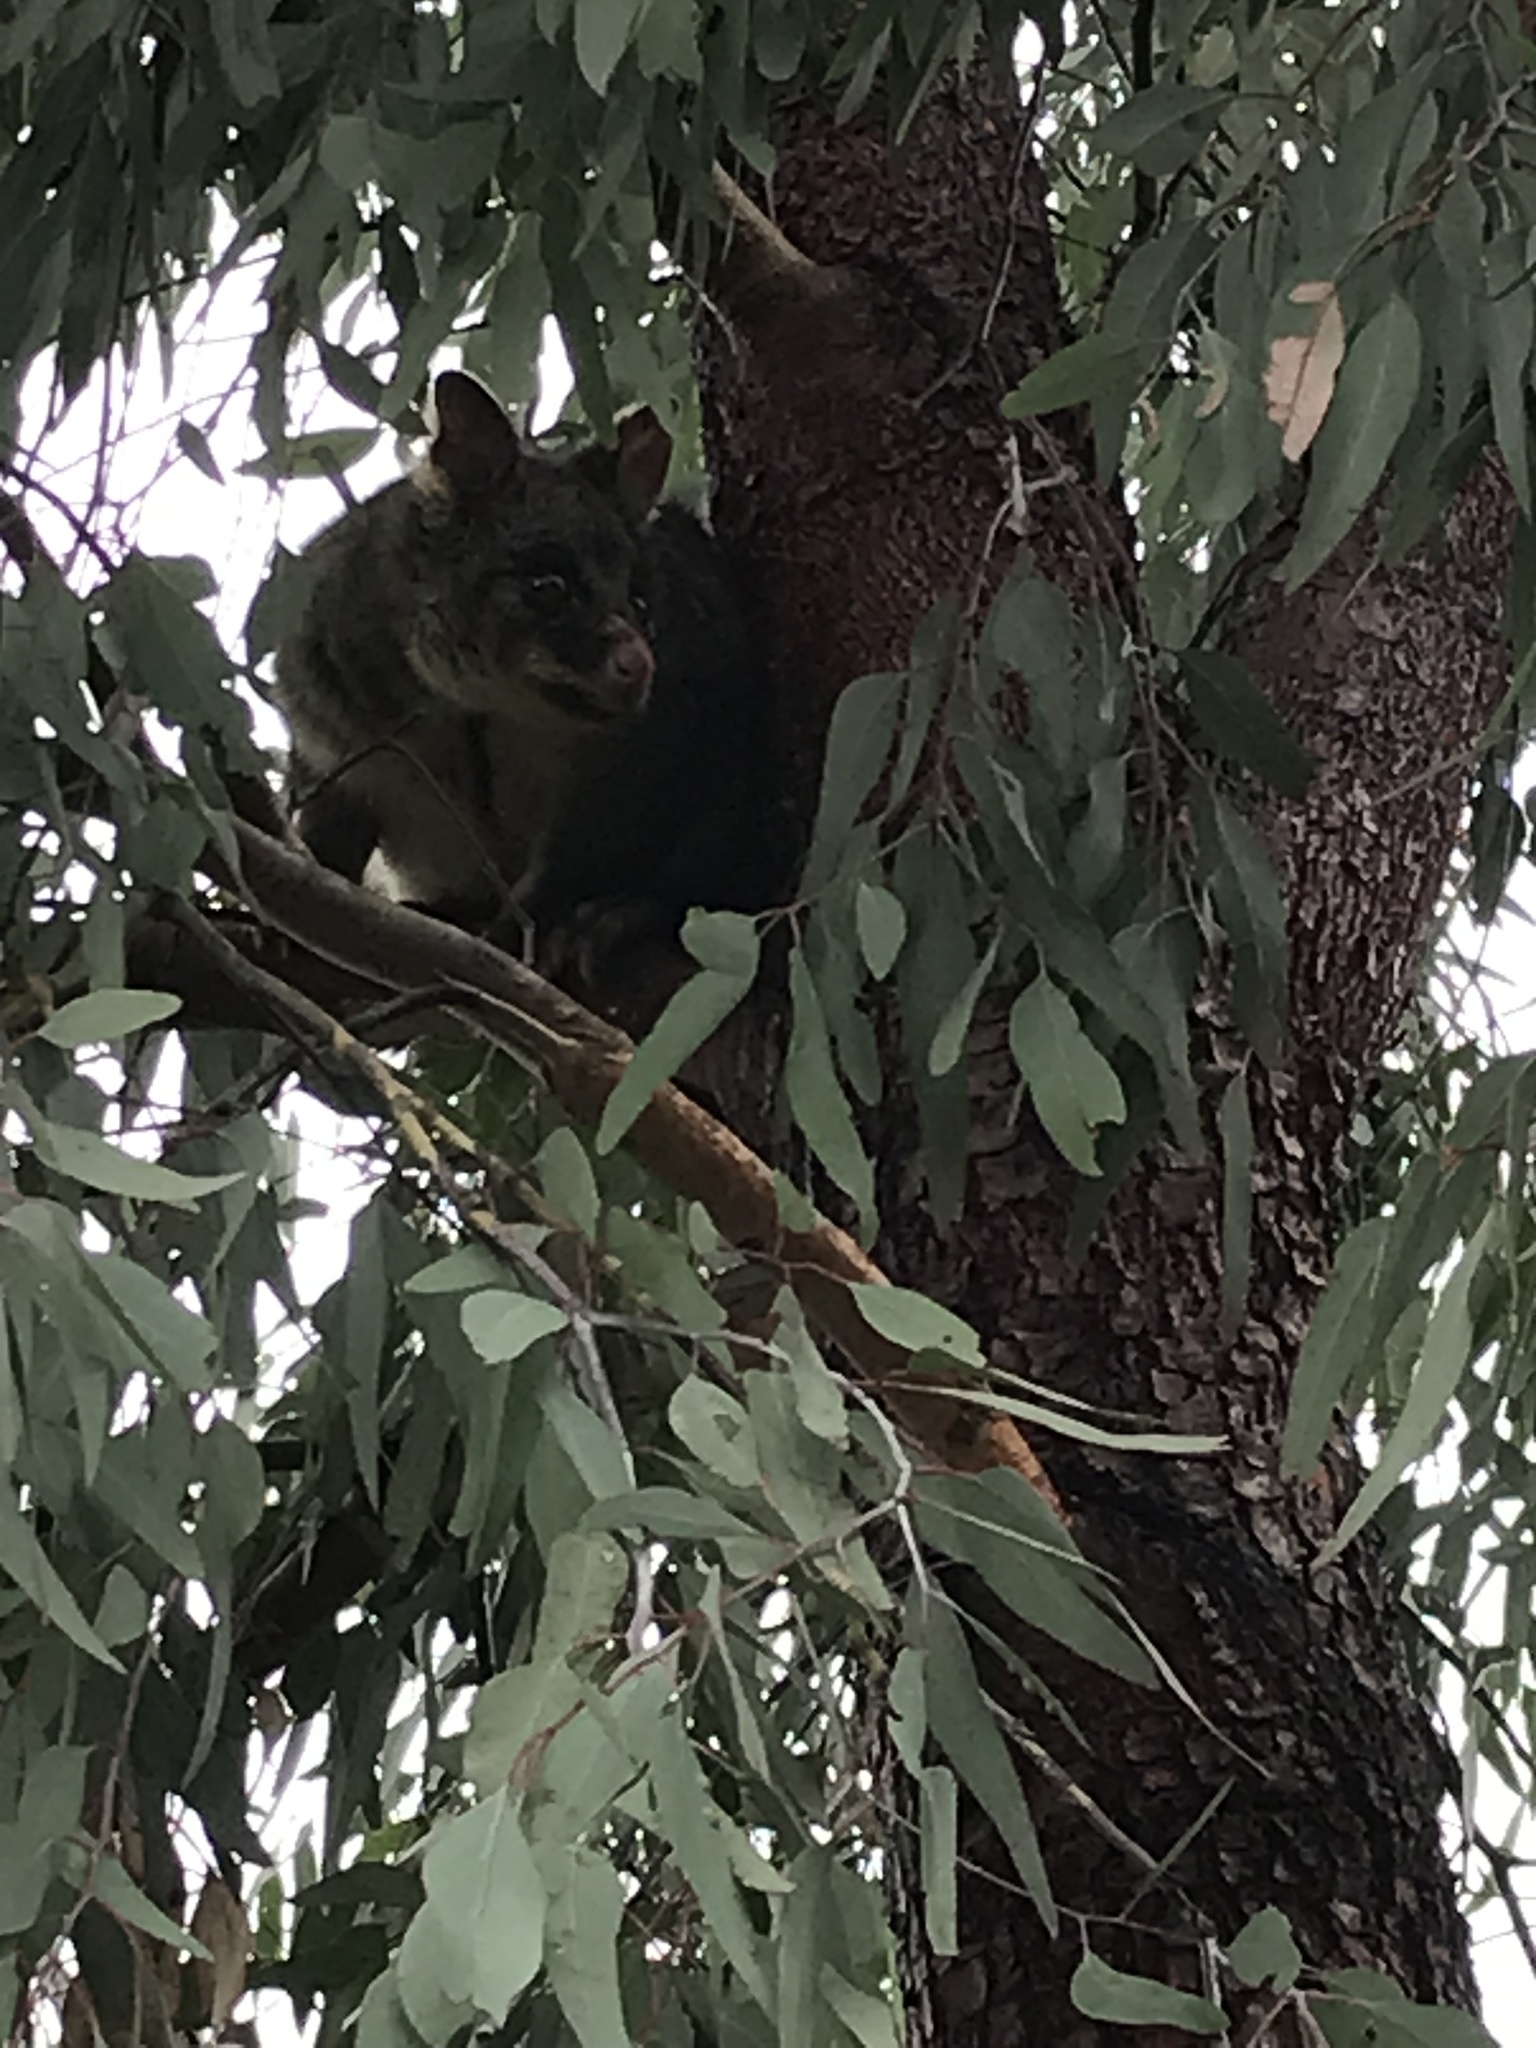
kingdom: Animalia
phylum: Chordata
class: Mammalia
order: Diprotodontia
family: Phalangeridae
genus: Trichosurus
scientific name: Trichosurus vulpecula
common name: Common brushtail
